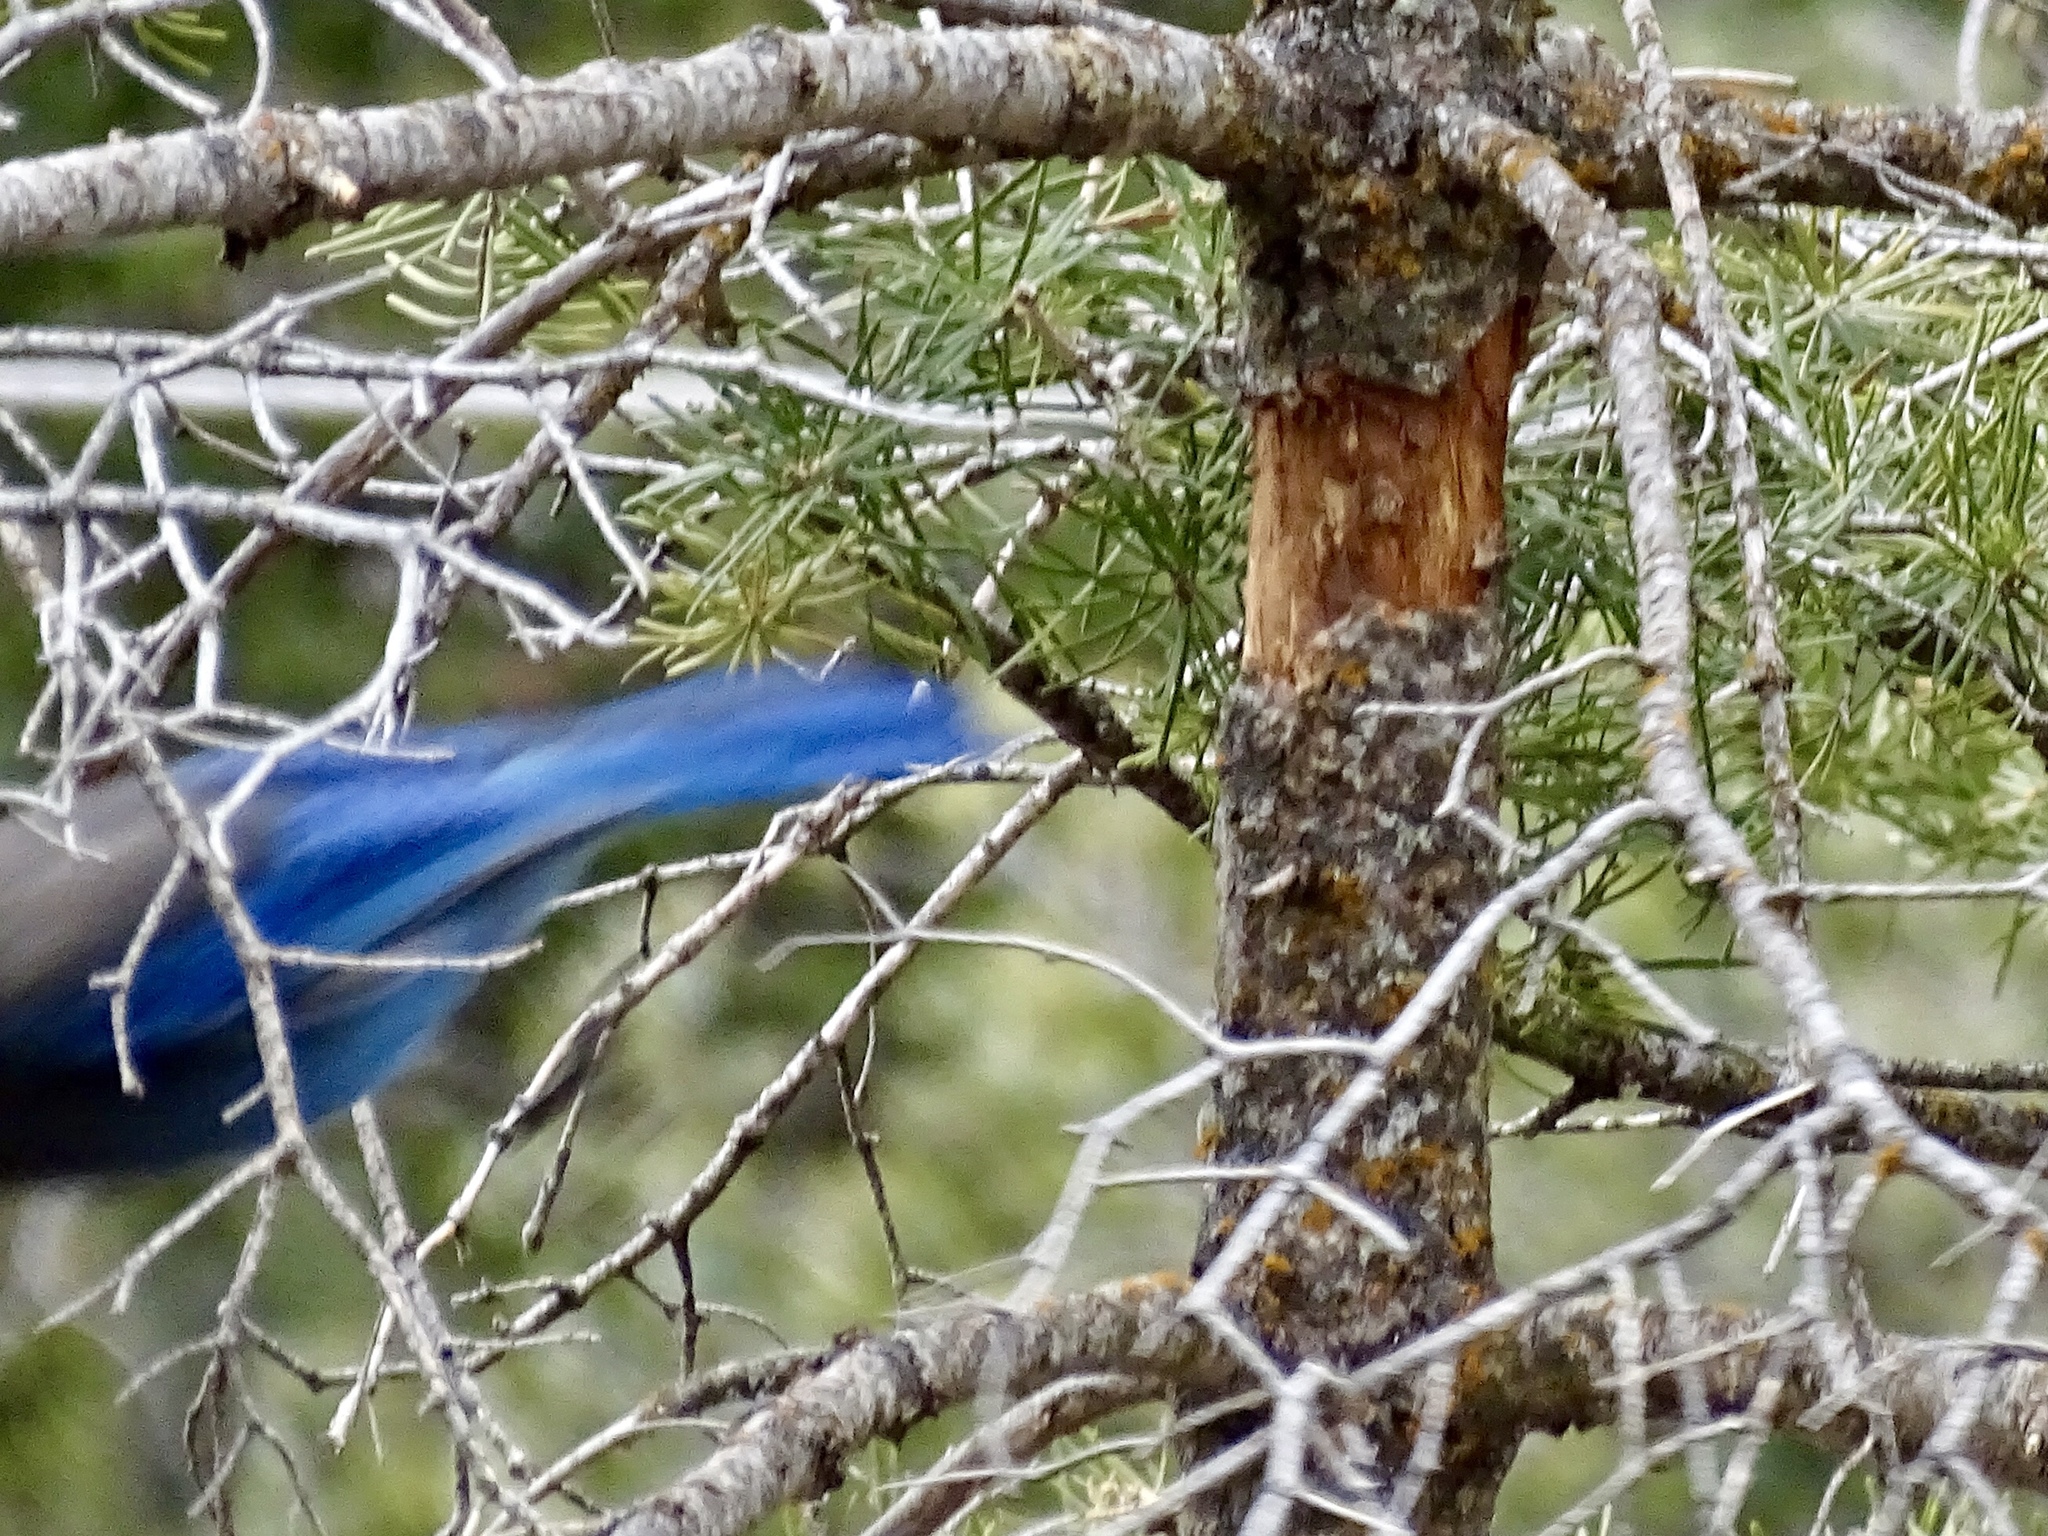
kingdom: Animalia
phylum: Chordata
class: Aves
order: Passeriformes
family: Corvidae
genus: Cyanocitta
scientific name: Cyanocitta stelleri
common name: Steller's jay
